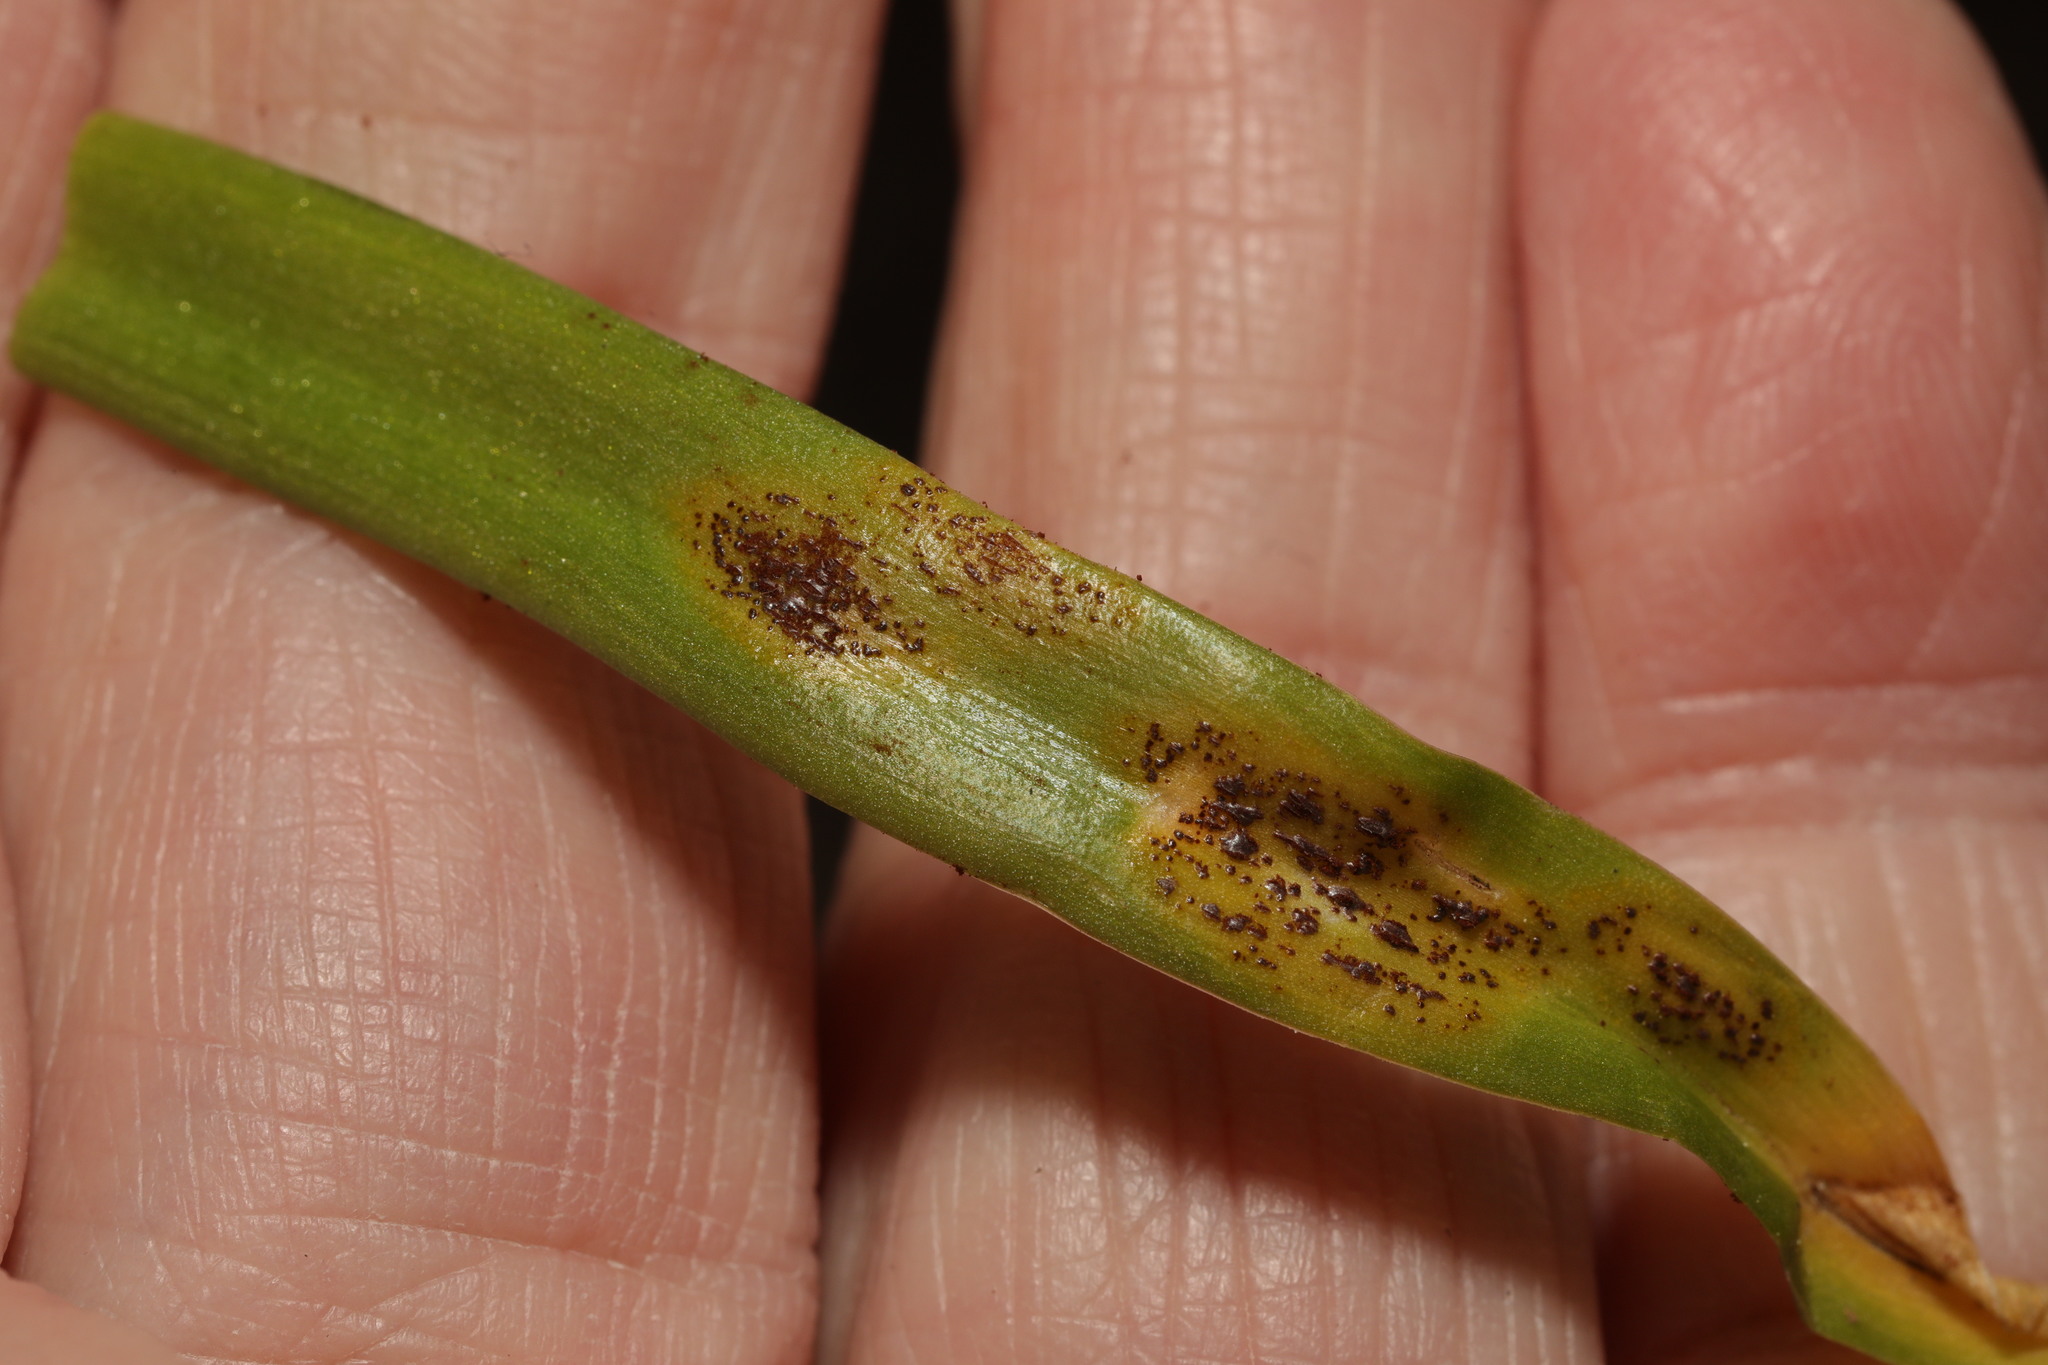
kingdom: Fungi
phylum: Basidiomycota
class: Pucciniomycetes
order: Pucciniales
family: Pucciniaceae
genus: Uromyces
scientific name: Uromyces hyacinthi
